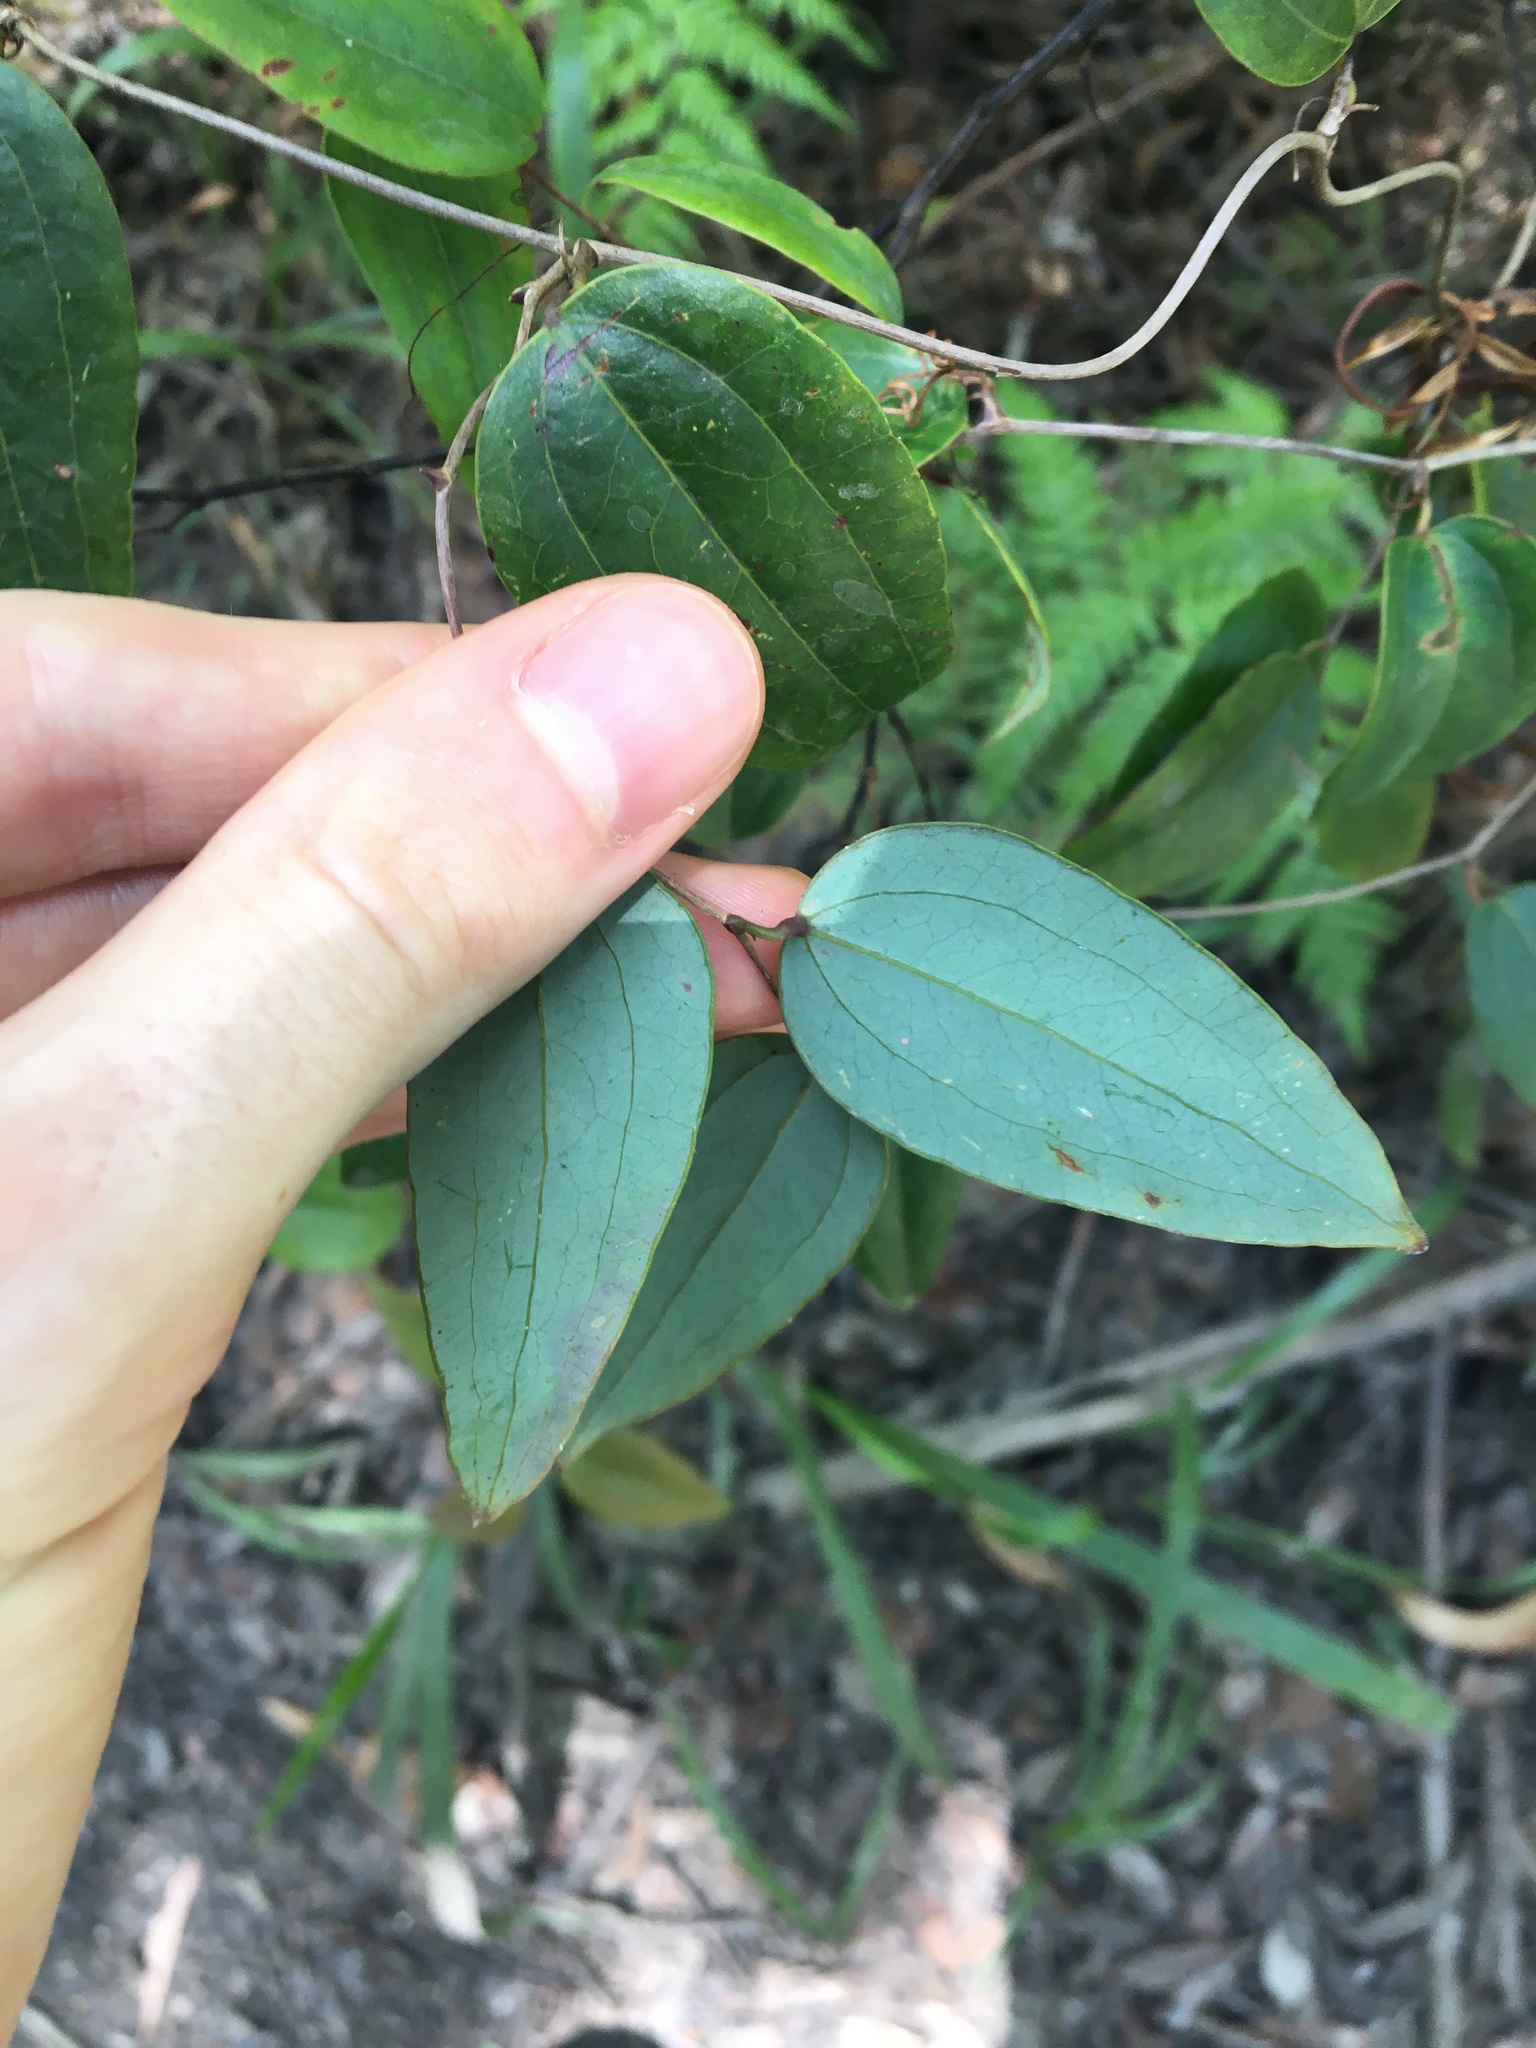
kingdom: Plantae
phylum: Tracheophyta
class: Liliopsida
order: Liliales
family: Smilacaceae
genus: Smilax
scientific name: Smilax glyciphylla
